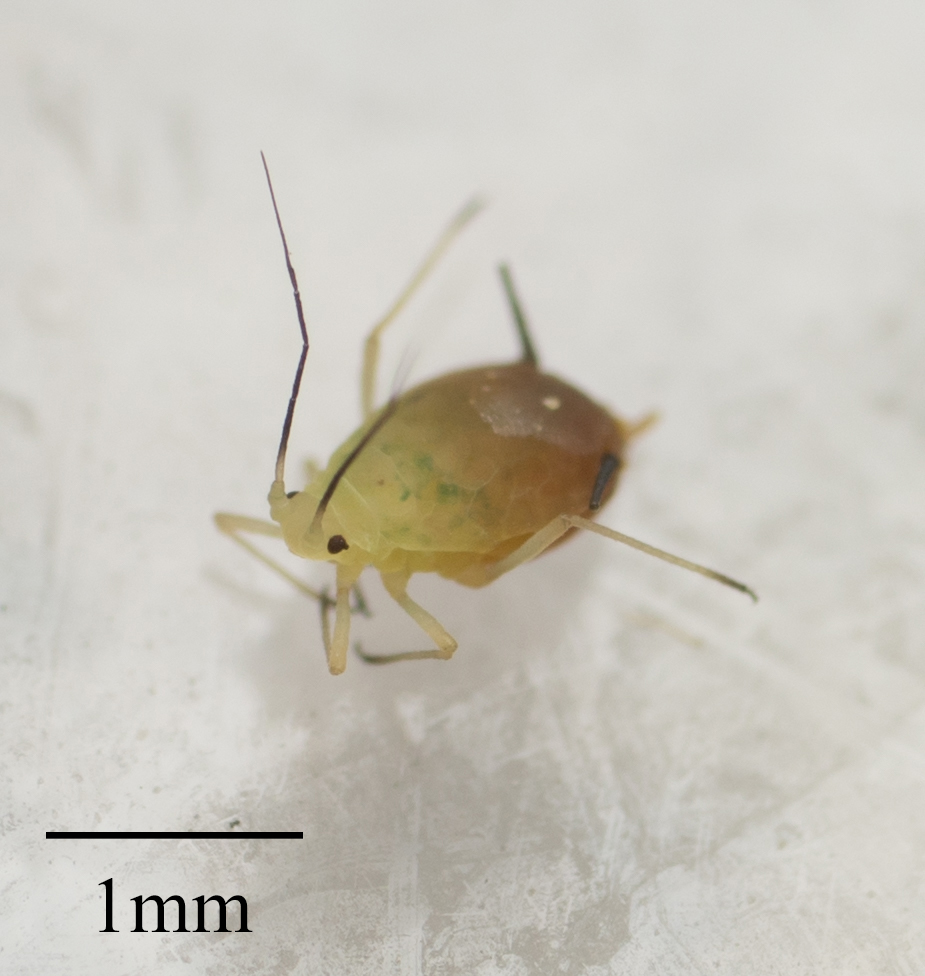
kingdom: Animalia
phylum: Arthropoda
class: Insecta
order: Hemiptera
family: Aphididae
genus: Aphis
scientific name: Aphis coreopsidis
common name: Aphid
